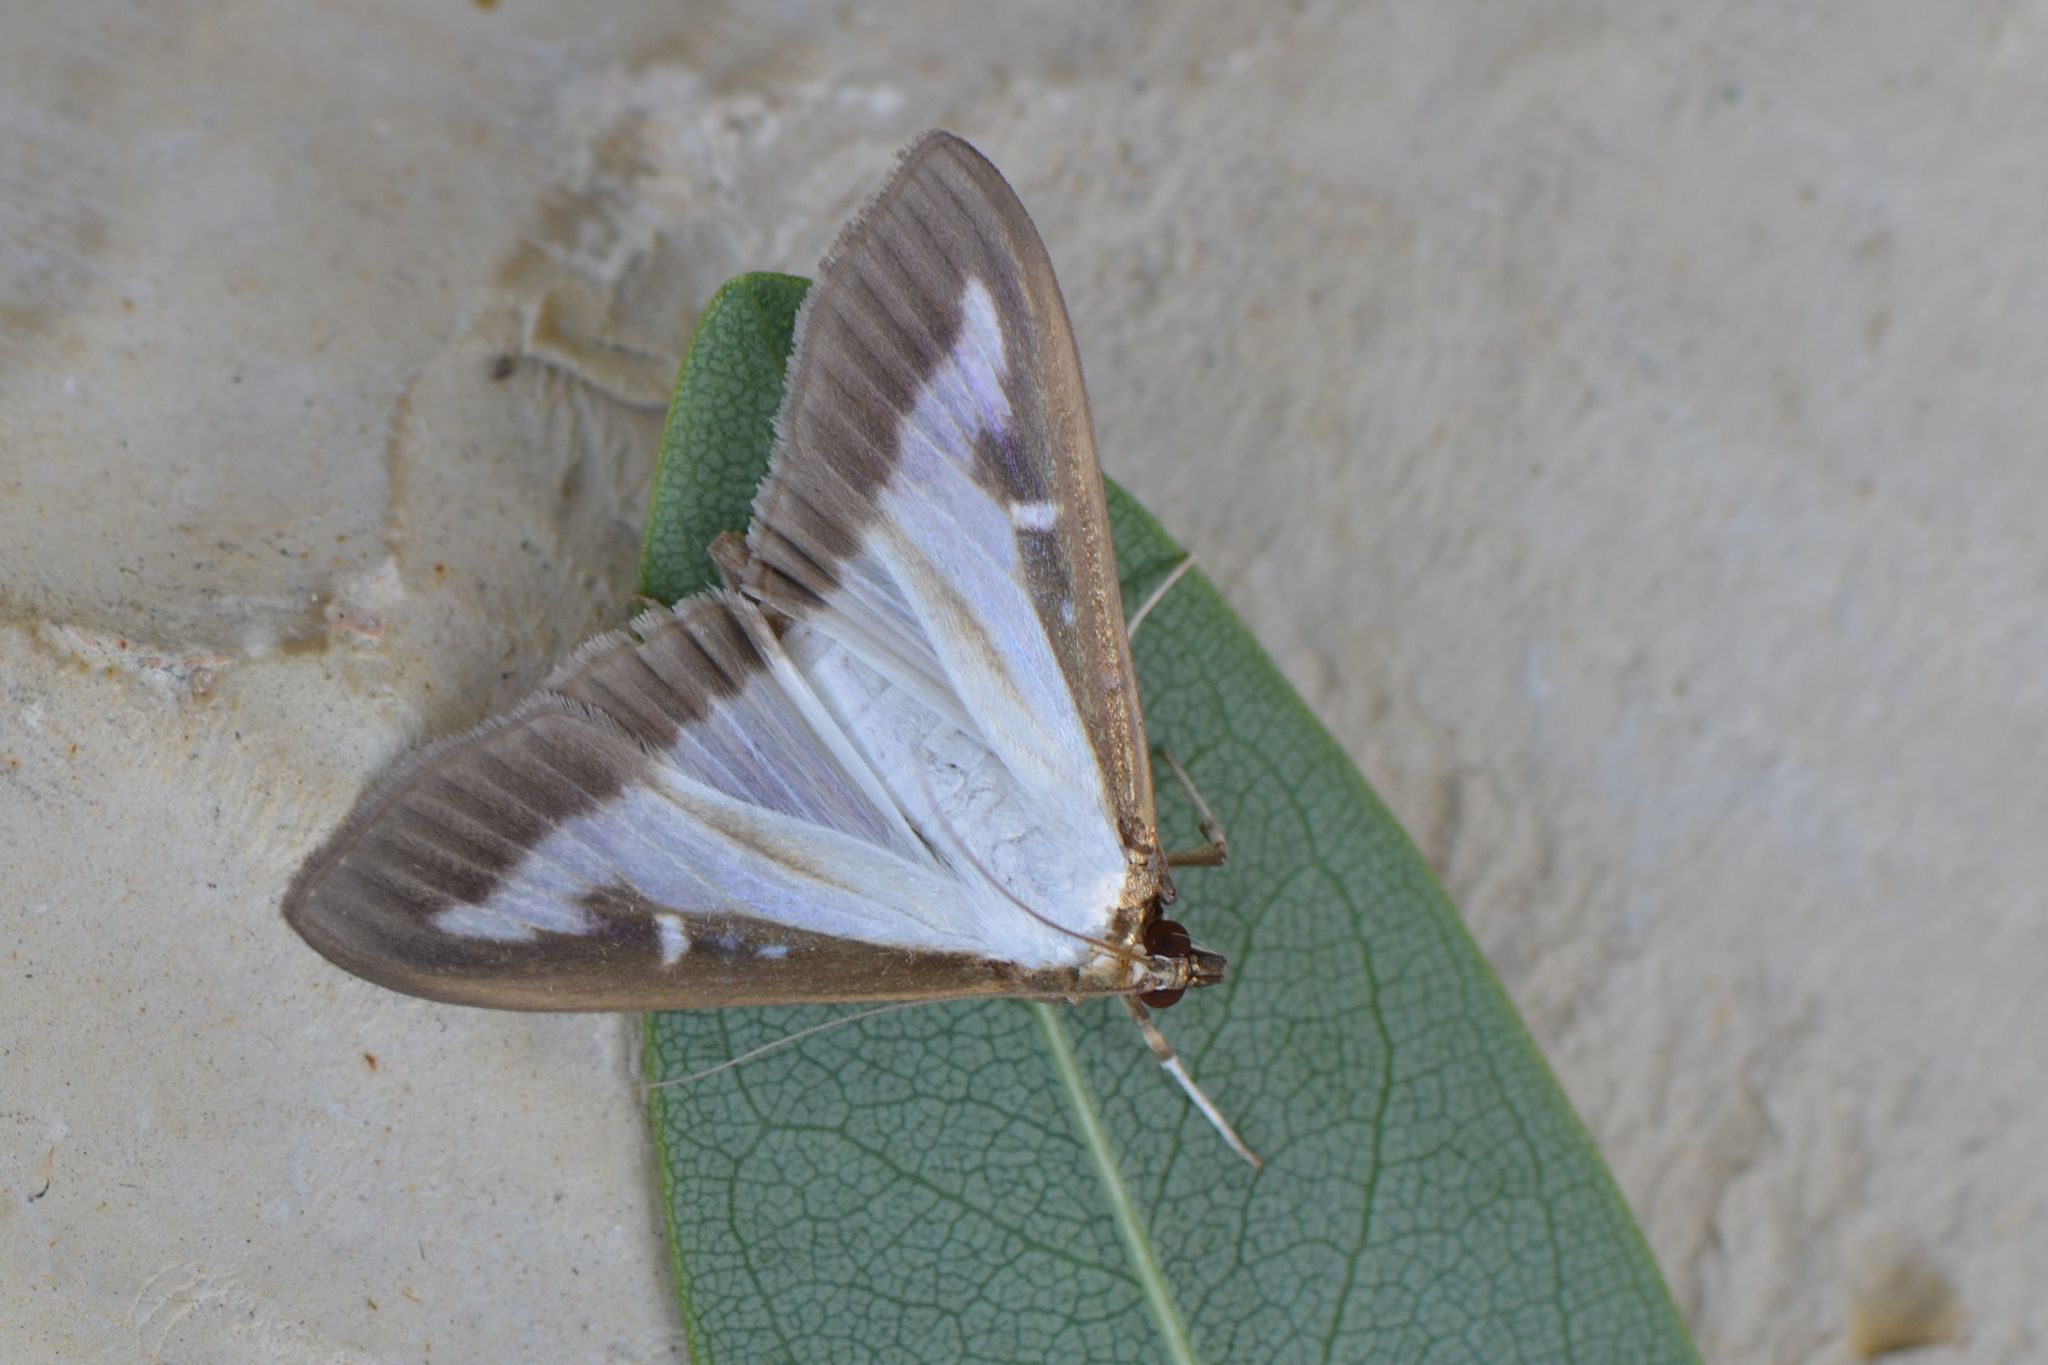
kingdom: Animalia
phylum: Arthropoda
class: Insecta
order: Lepidoptera
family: Crambidae
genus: Cydalima
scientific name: Cydalima perspectalis
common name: Box tree moth
